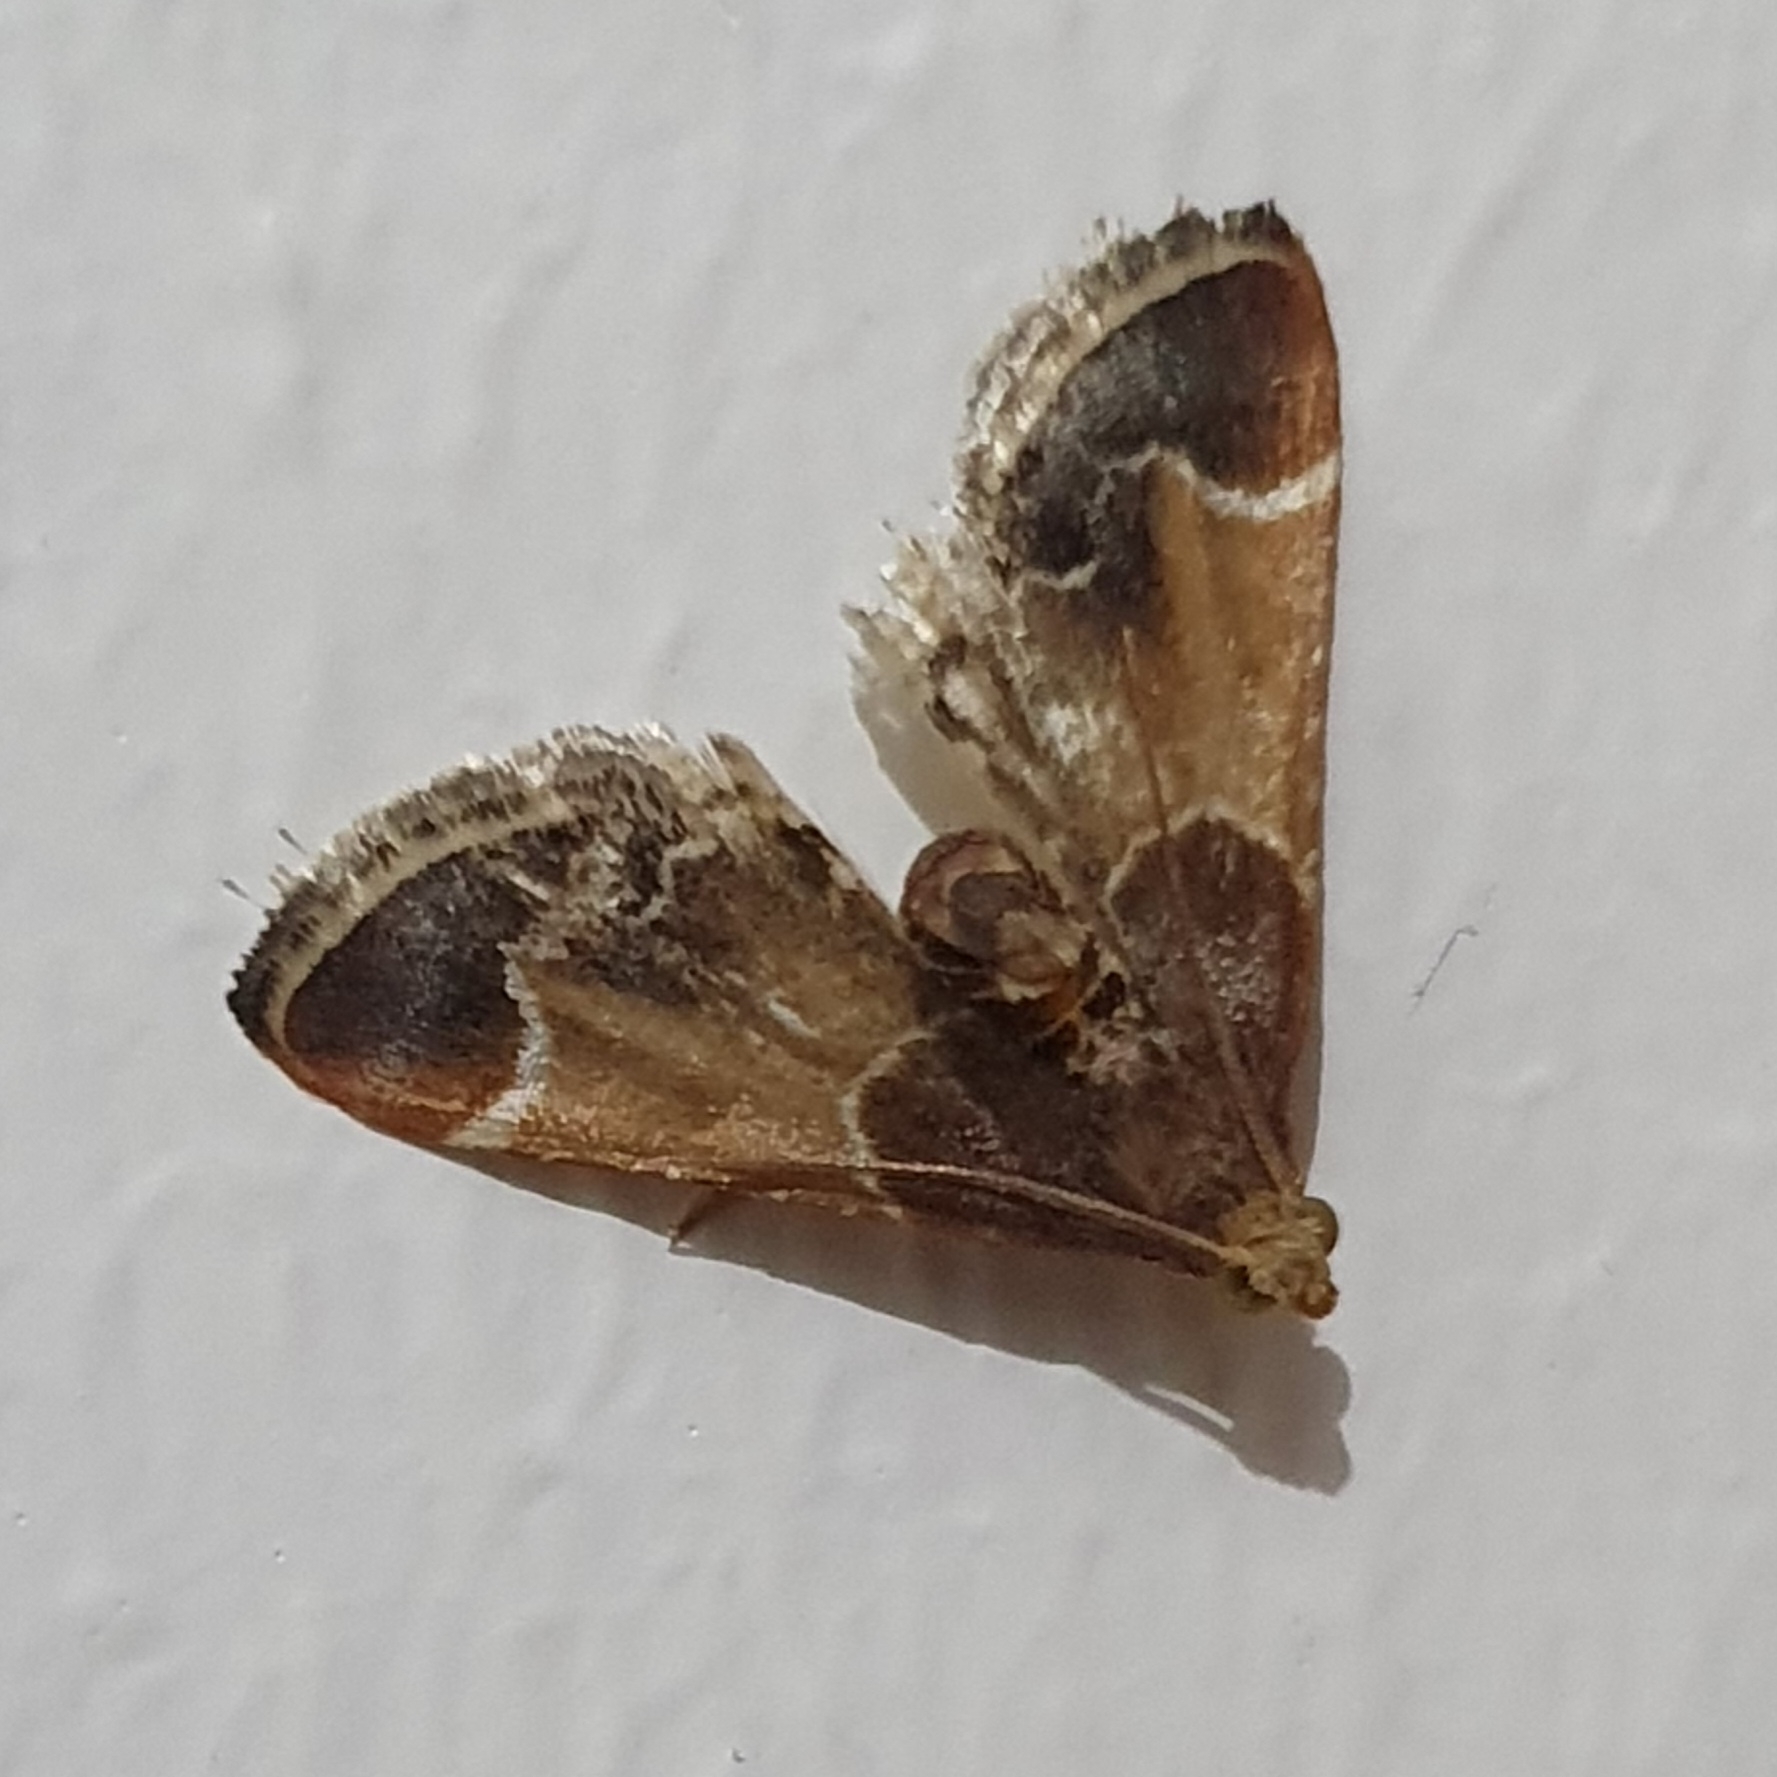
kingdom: Animalia
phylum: Arthropoda
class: Insecta
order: Lepidoptera
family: Pyralidae
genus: Pyralis
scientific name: Pyralis farinalis
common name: Meal moth
